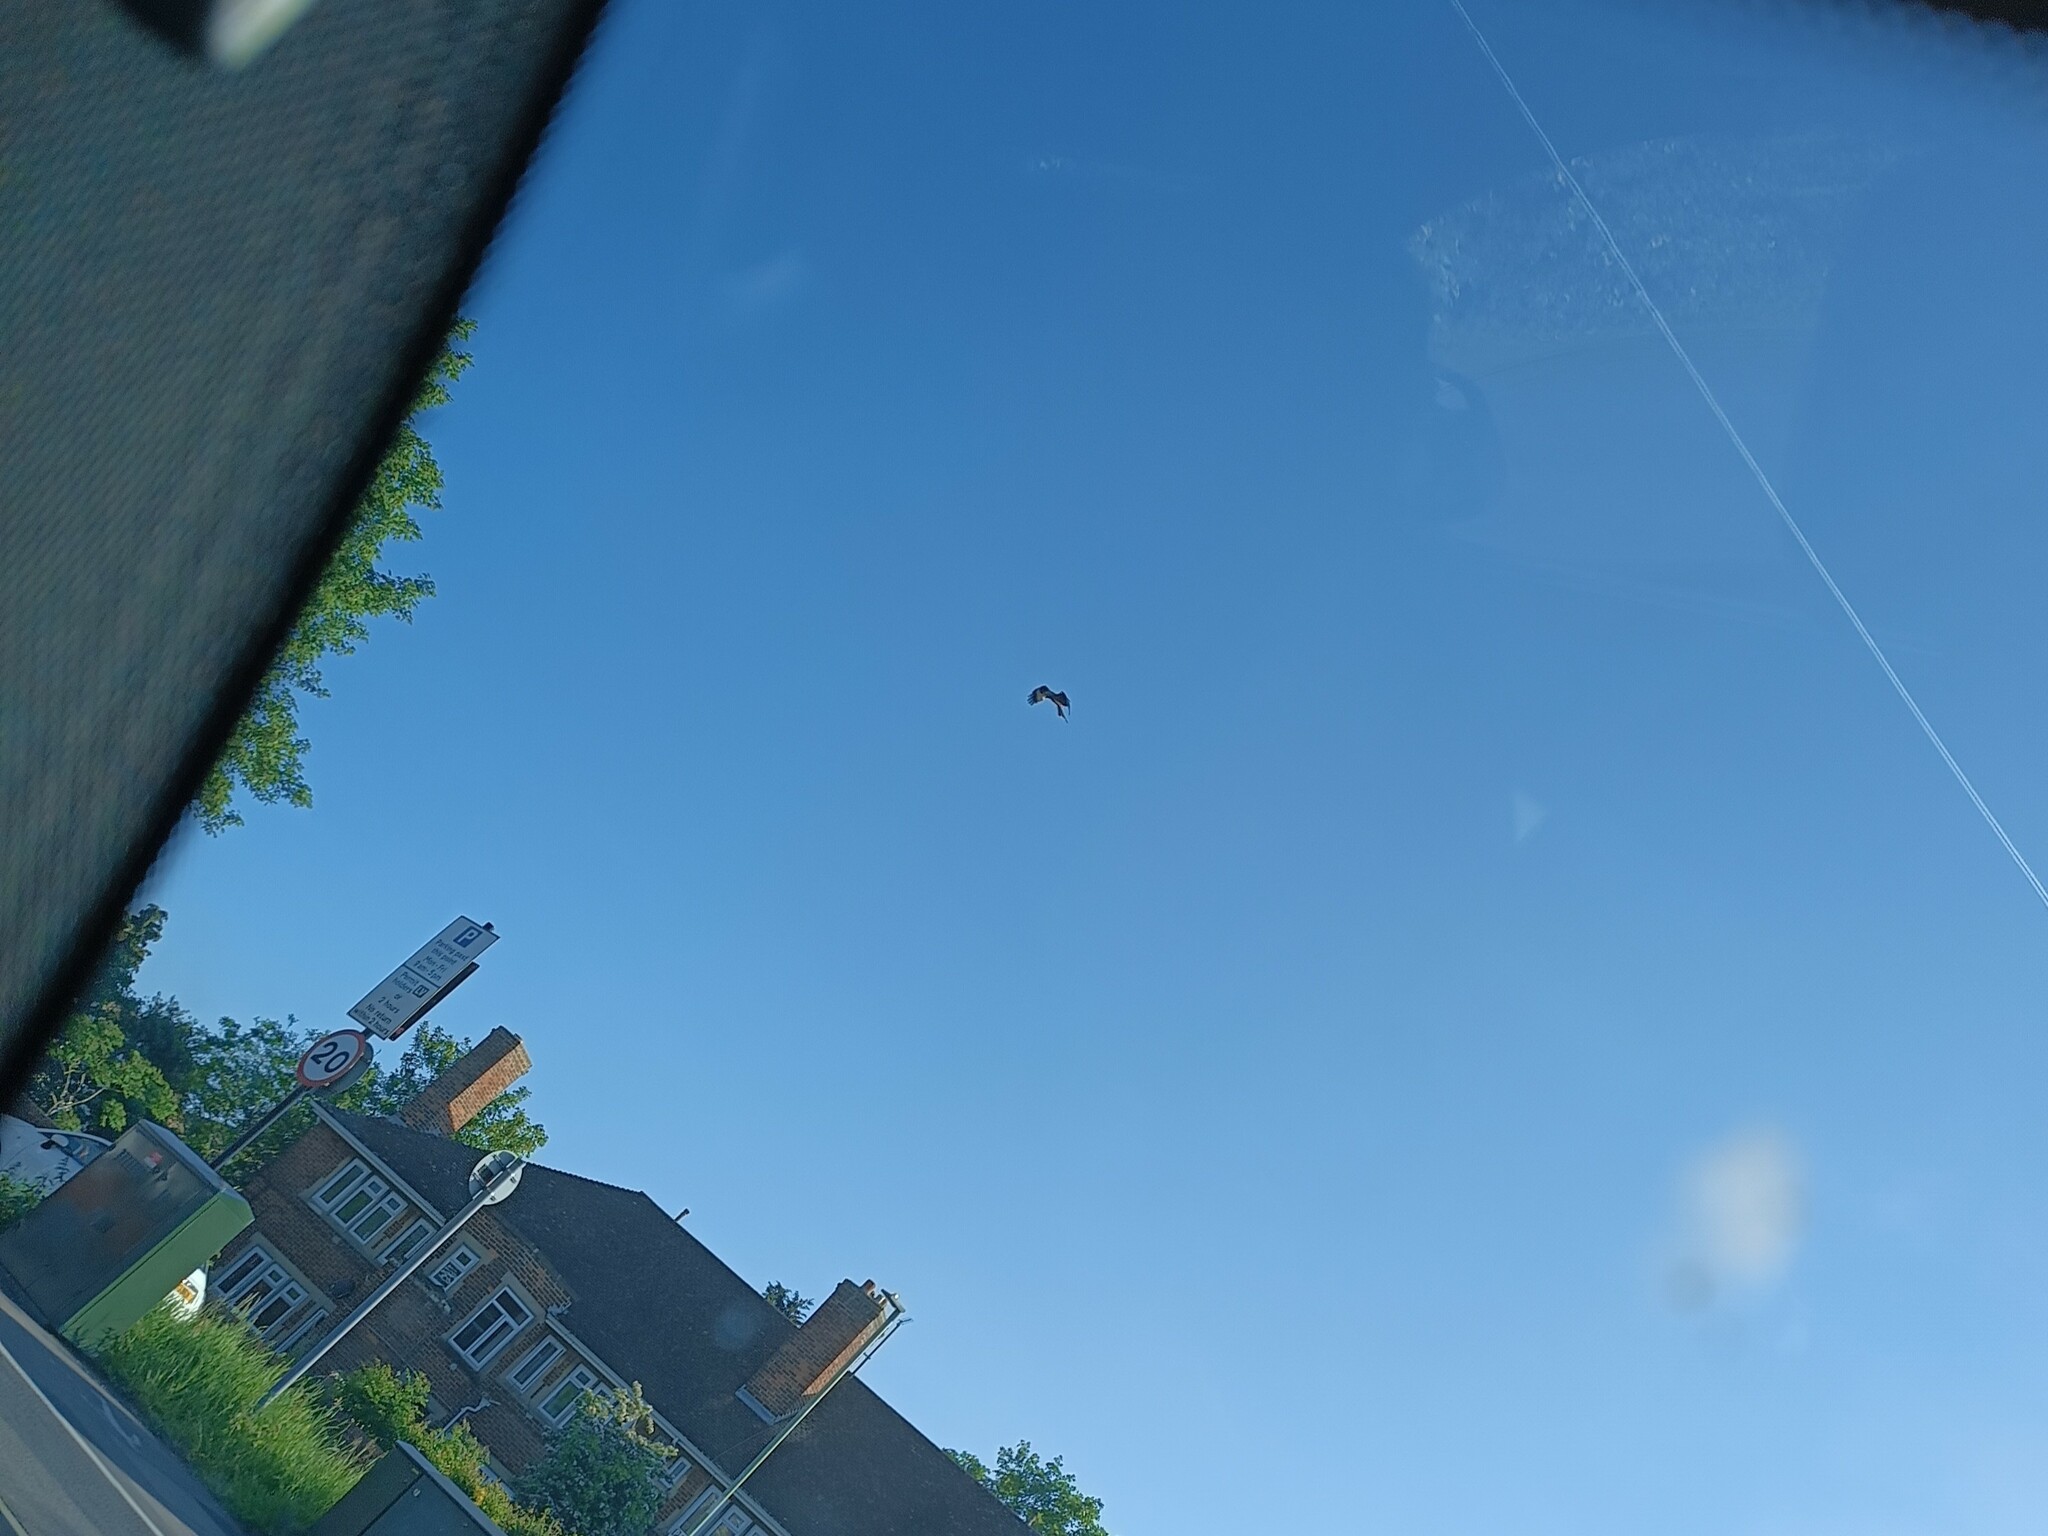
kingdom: Animalia
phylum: Chordata
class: Aves
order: Accipitriformes
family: Accipitridae
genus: Milvus
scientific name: Milvus milvus
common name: Red kite
